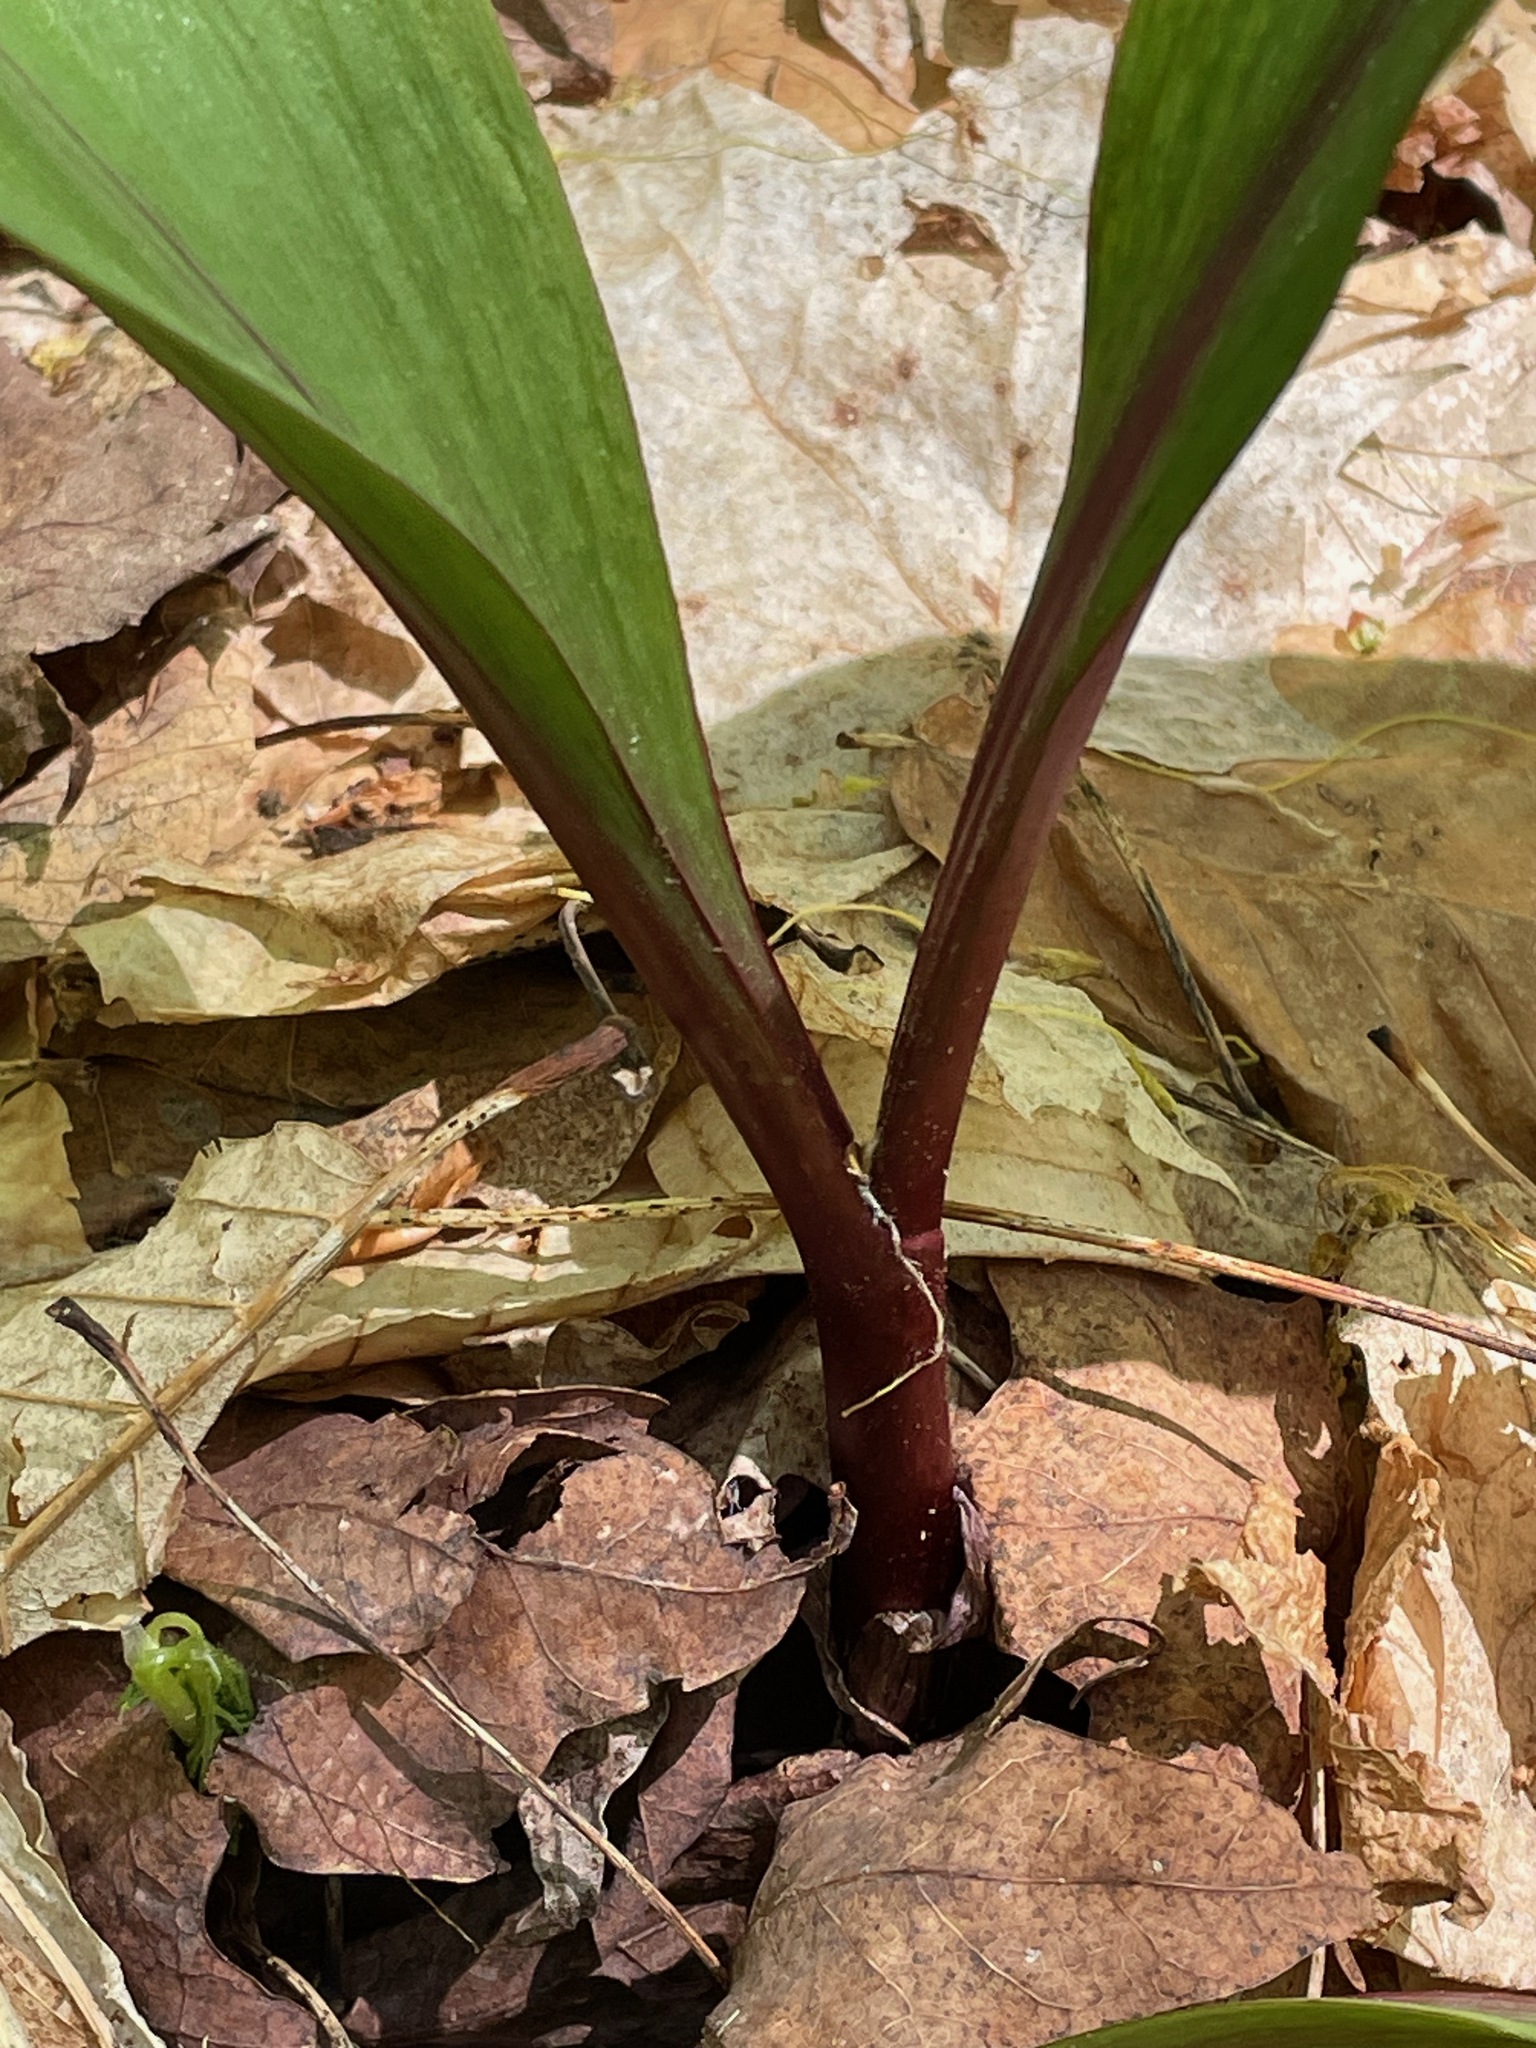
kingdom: Plantae
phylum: Tracheophyta
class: Liliopsida
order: Asparagales
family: Amaryllidaceae
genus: Allium
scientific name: Allium tricoccum
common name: Ramp
